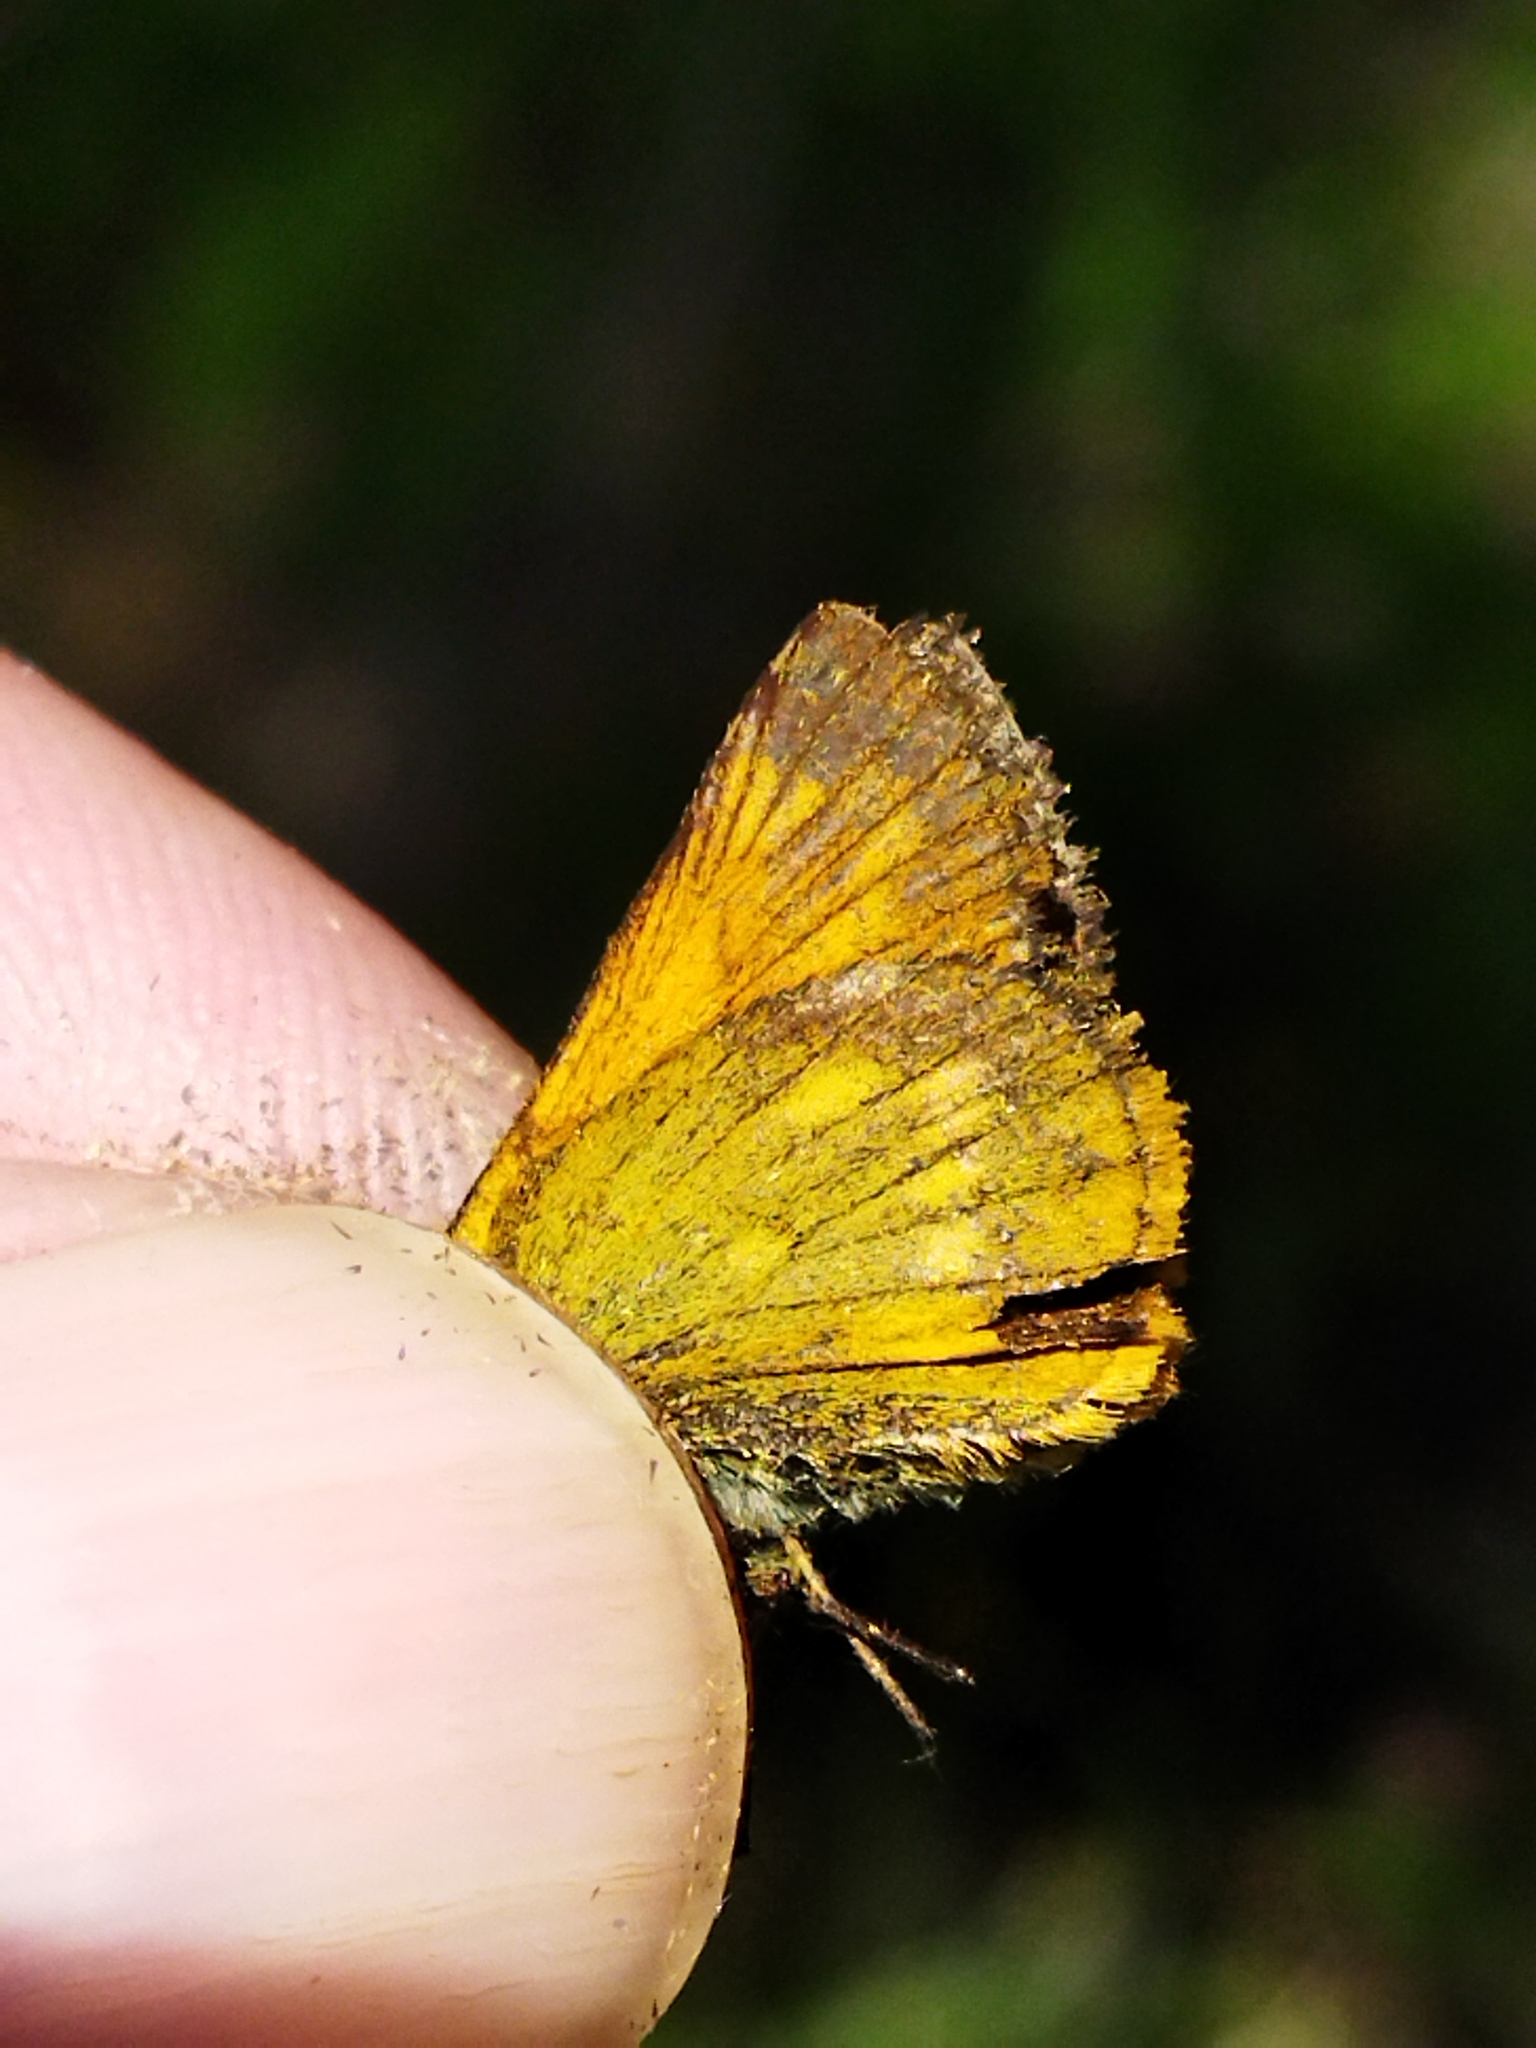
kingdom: Animalia
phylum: Arthropoda
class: Insecta
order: Lepidoptera
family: Hesperiidae
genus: Ochlodes
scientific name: Ochlodes venata
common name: Large skipper
